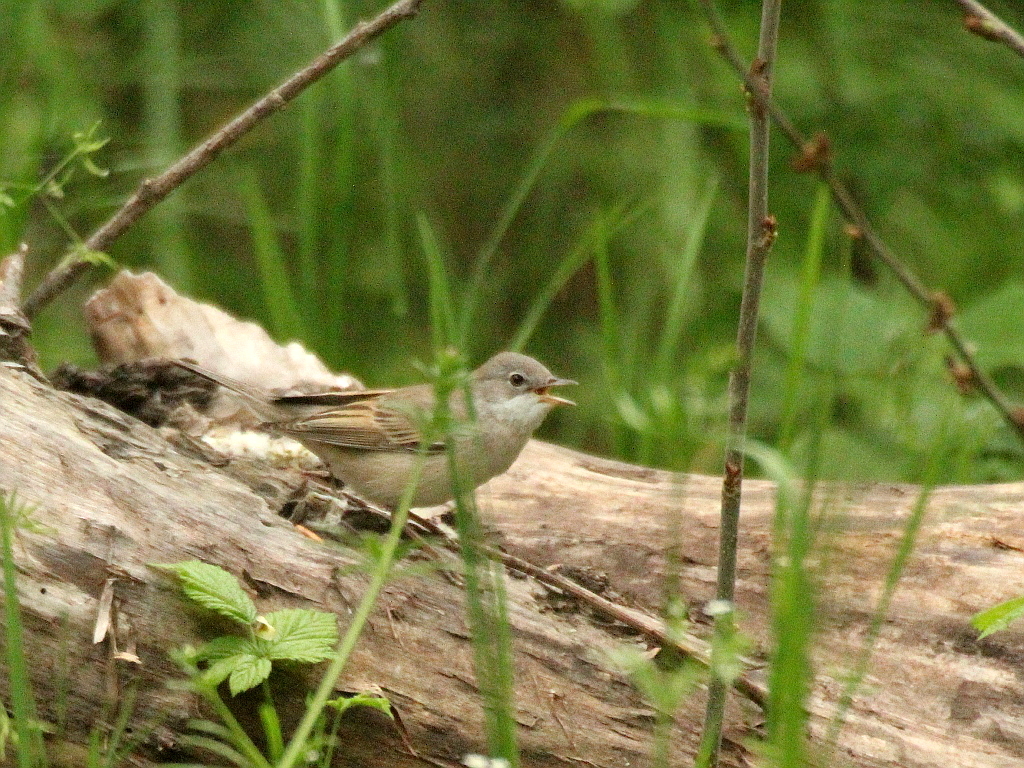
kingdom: Animalia
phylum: Chordata
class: Aves
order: Passeriformes
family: Sylviidae
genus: Sylvia
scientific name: Sylvia communis
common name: Common whitethroat
